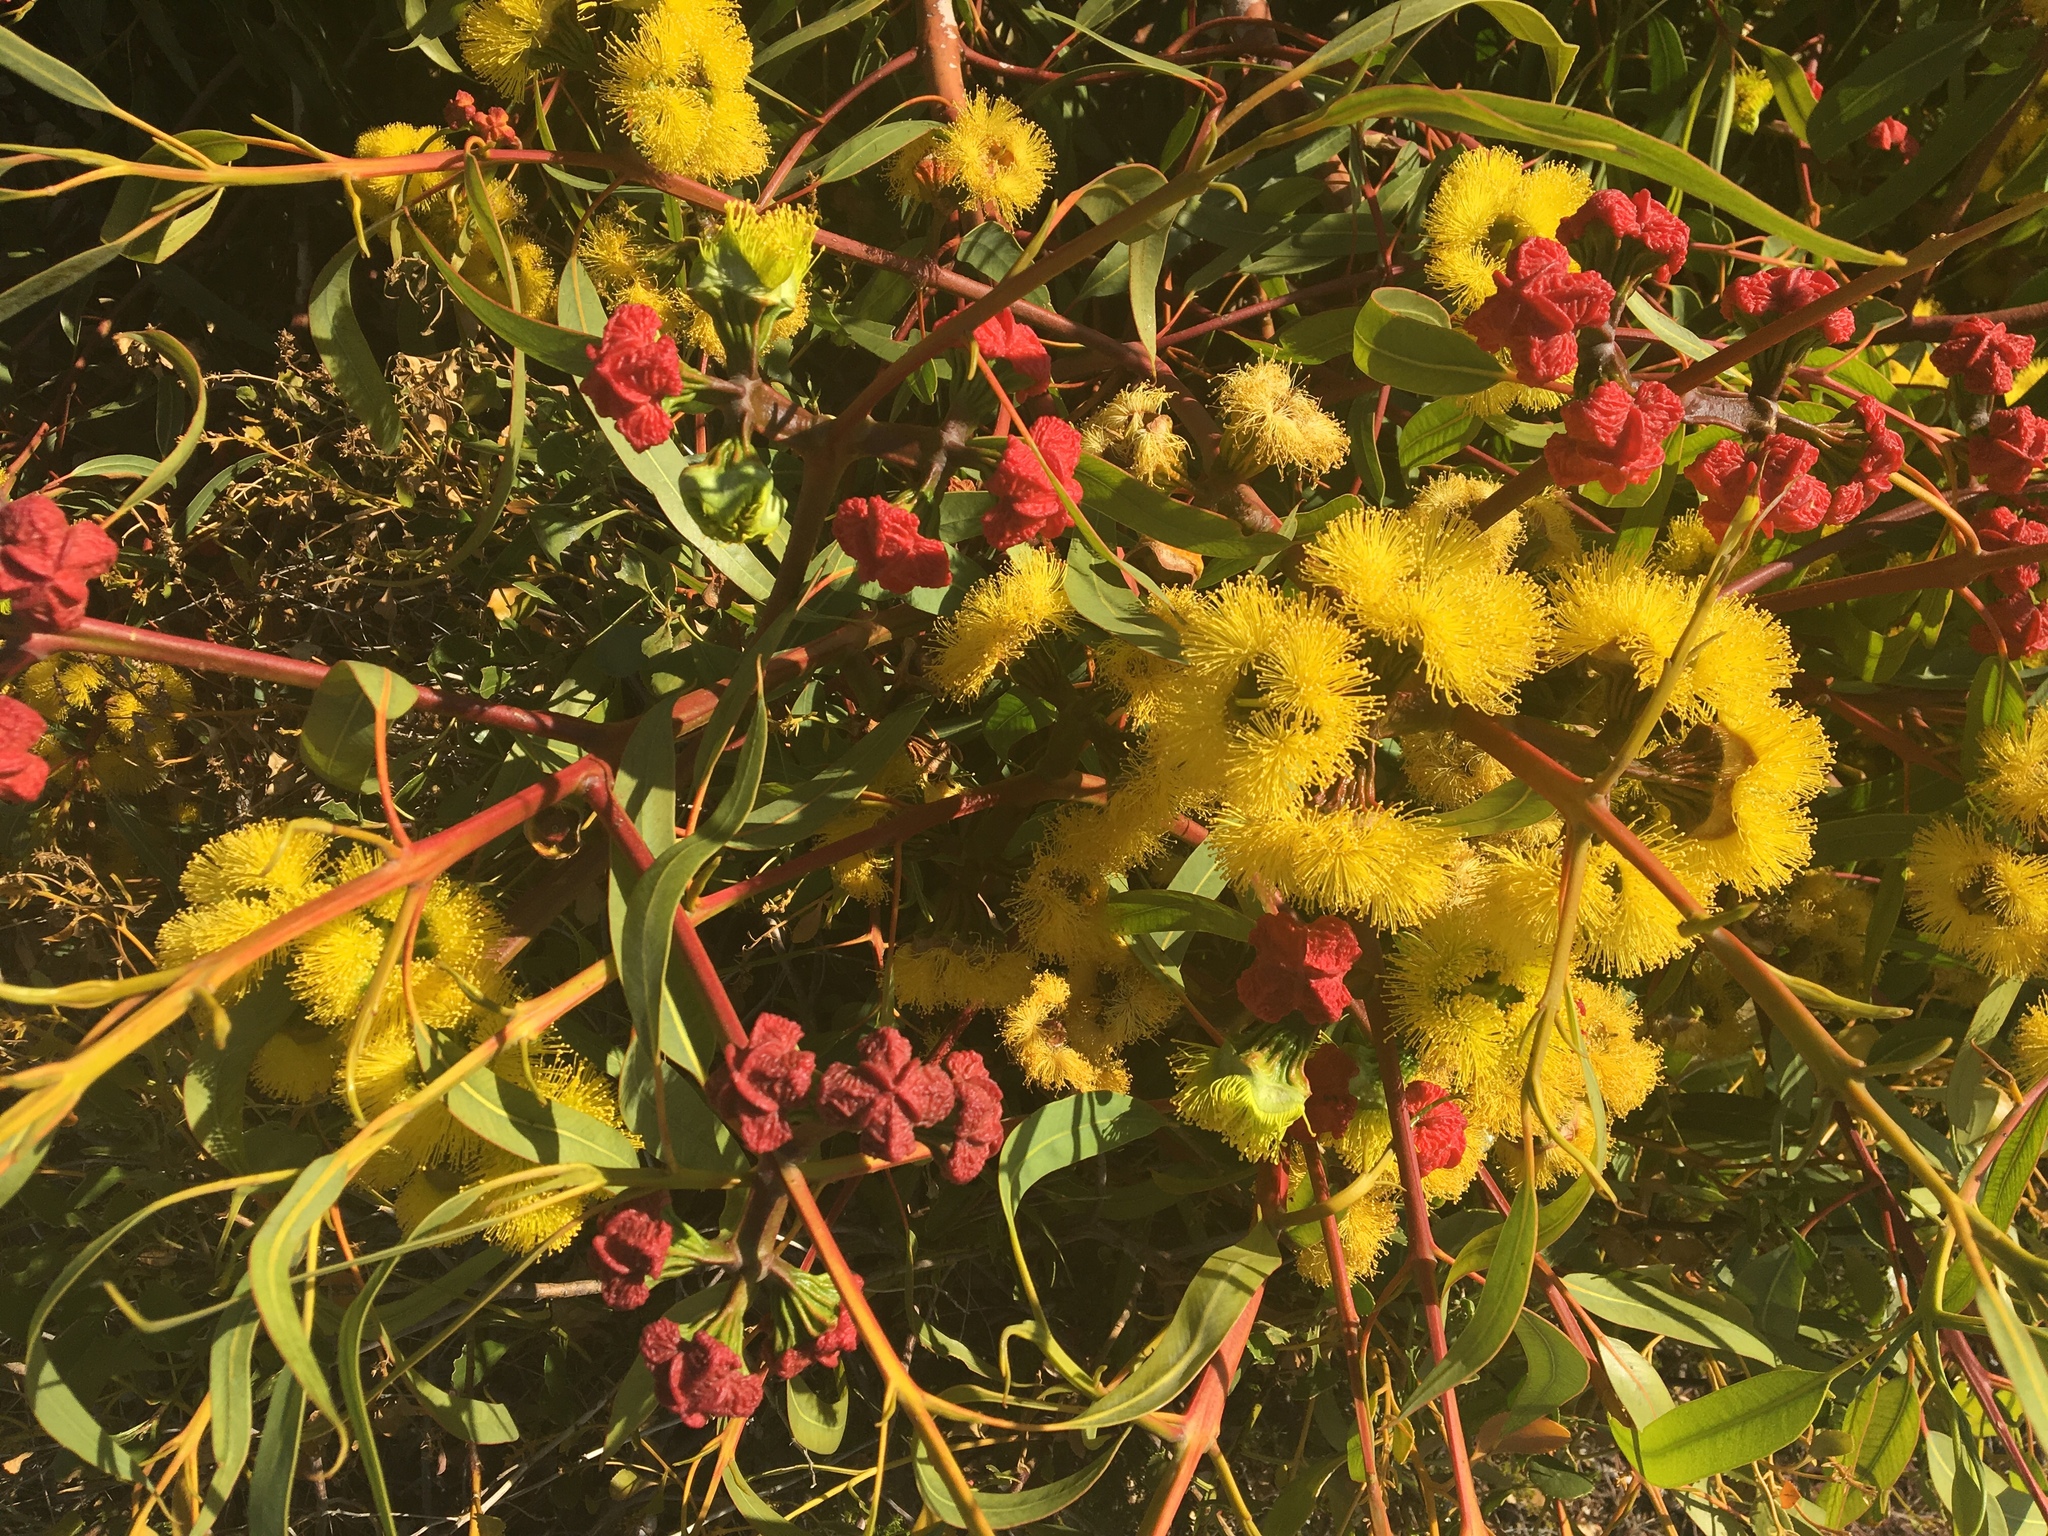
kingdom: Plantae
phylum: Tracheophyta
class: Magnoliopsida
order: Myrtales
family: Myrtaceae
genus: Eucalyptus
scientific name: Eucalyptus erythrocorys
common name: Bookara gum
